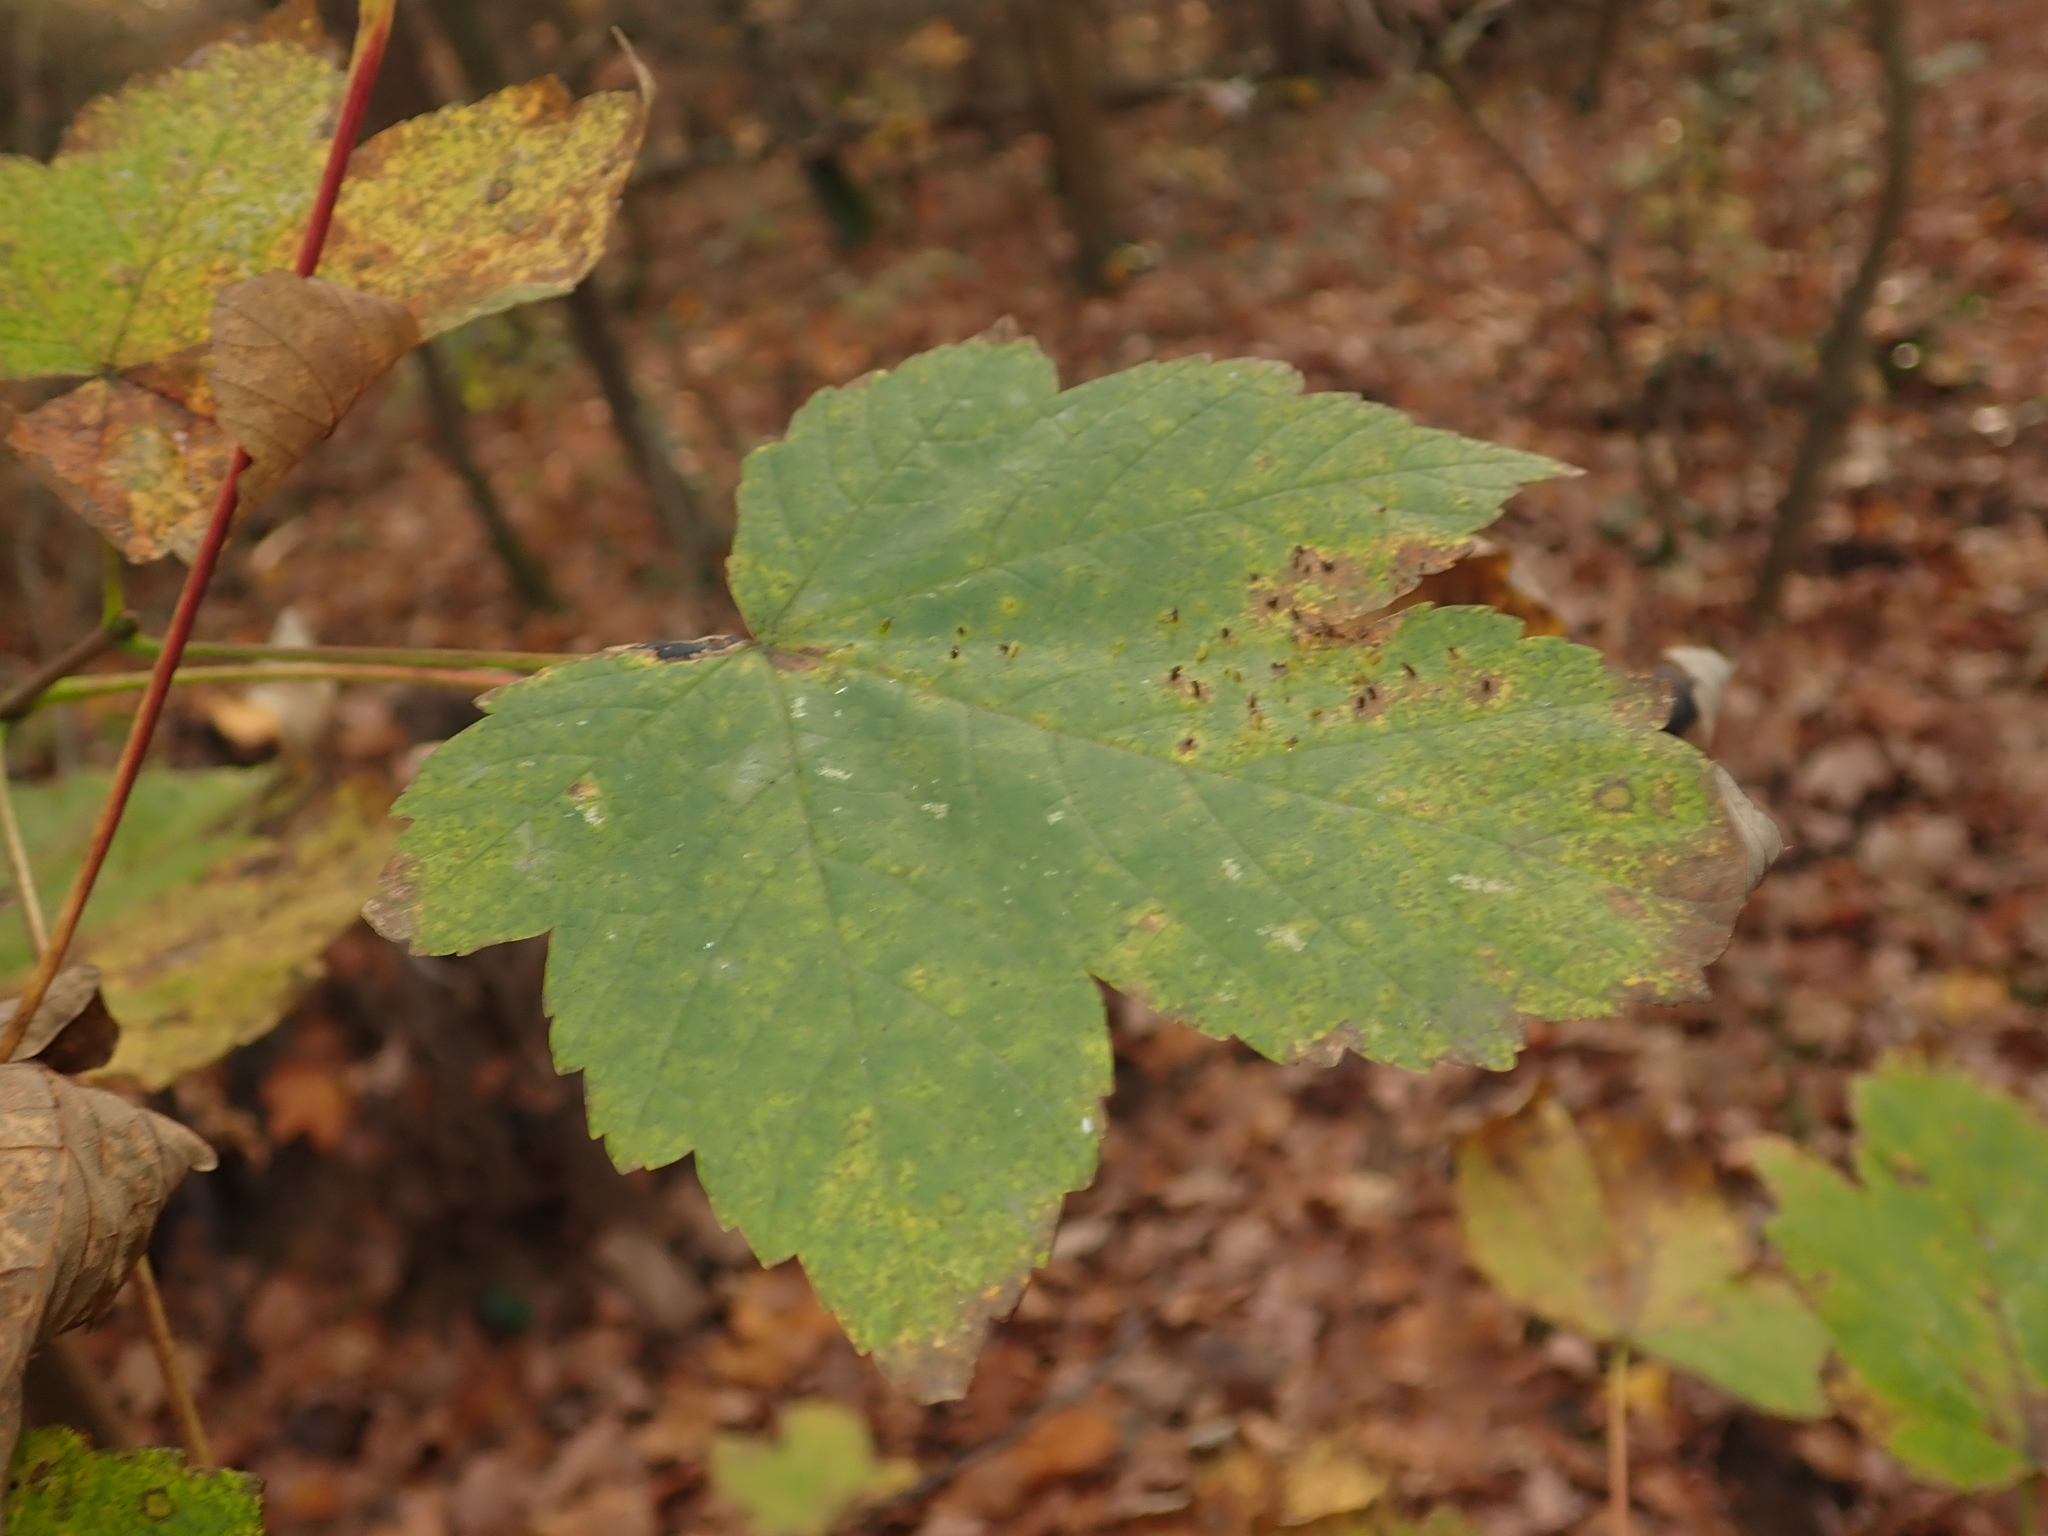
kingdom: Plantae
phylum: Tracheophyta
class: Magnoliopsida
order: Sapindales
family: Sapindaceae
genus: Acer
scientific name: Acer pseudoplatanus
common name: Sycamore
